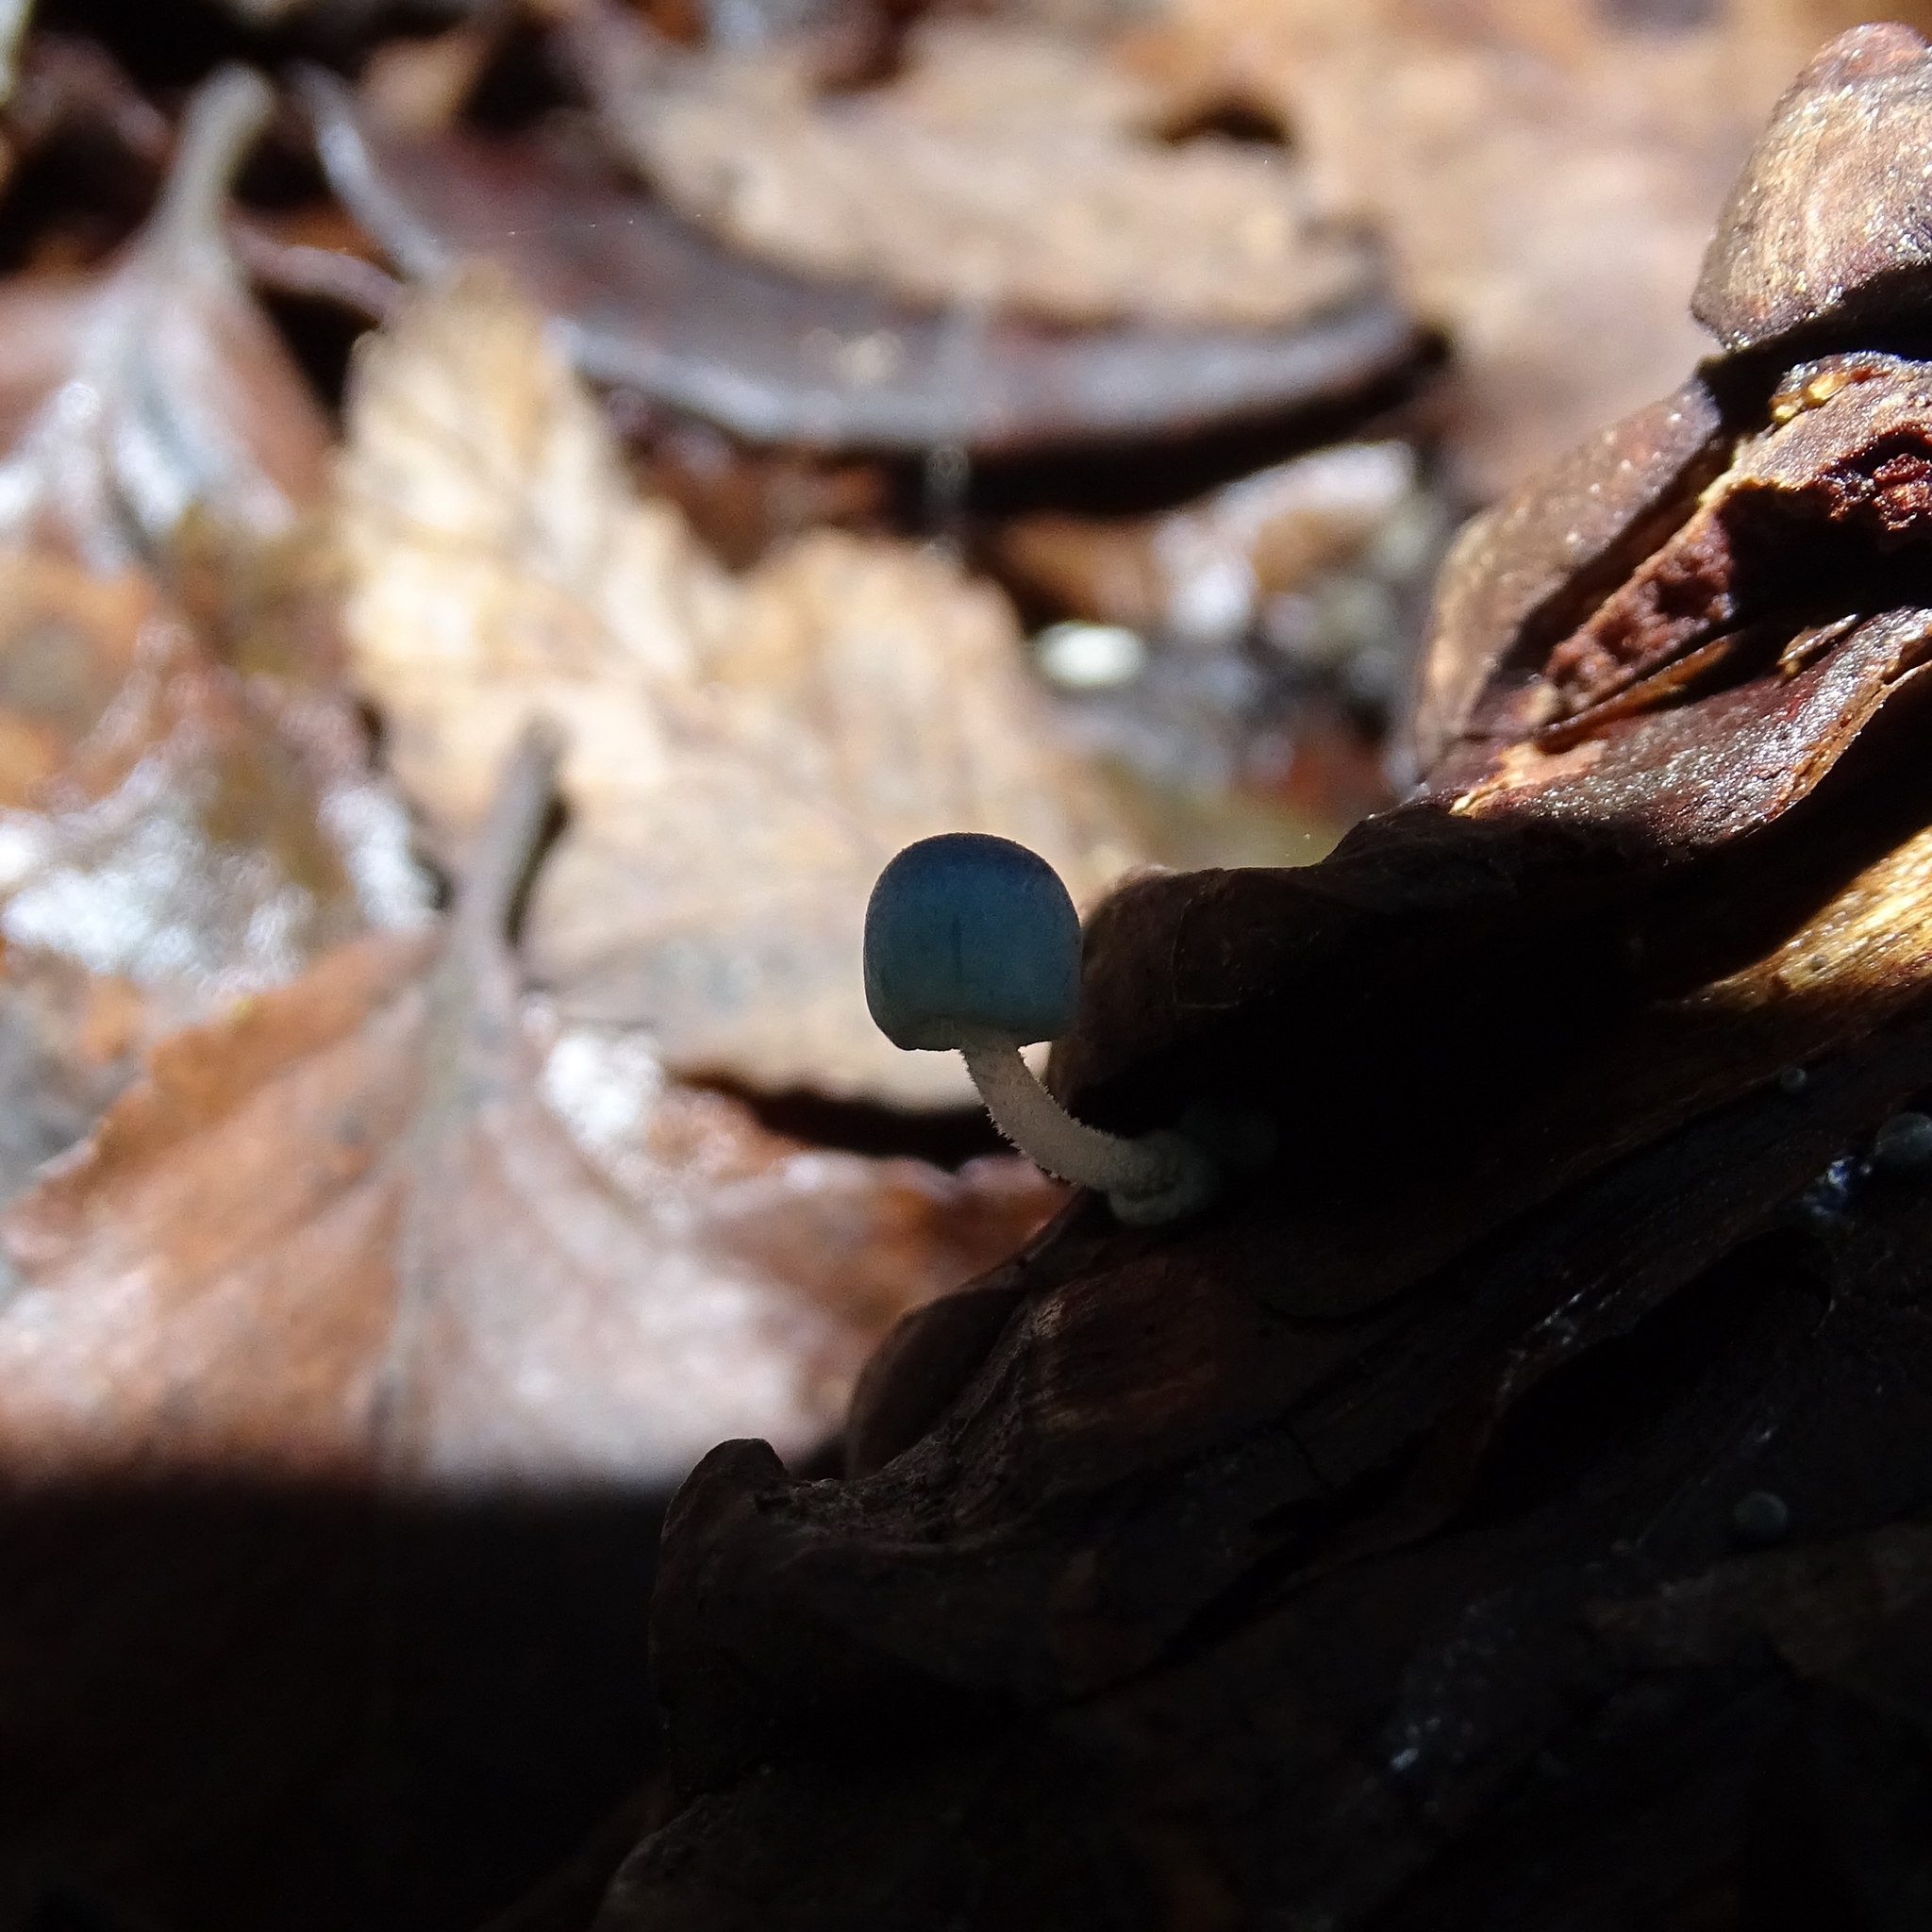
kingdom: Fungi
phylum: Basidiomycota
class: Agaricomycetes
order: Agaricales
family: Mycenaceae
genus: Mycena
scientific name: Mycena cyanocephala
